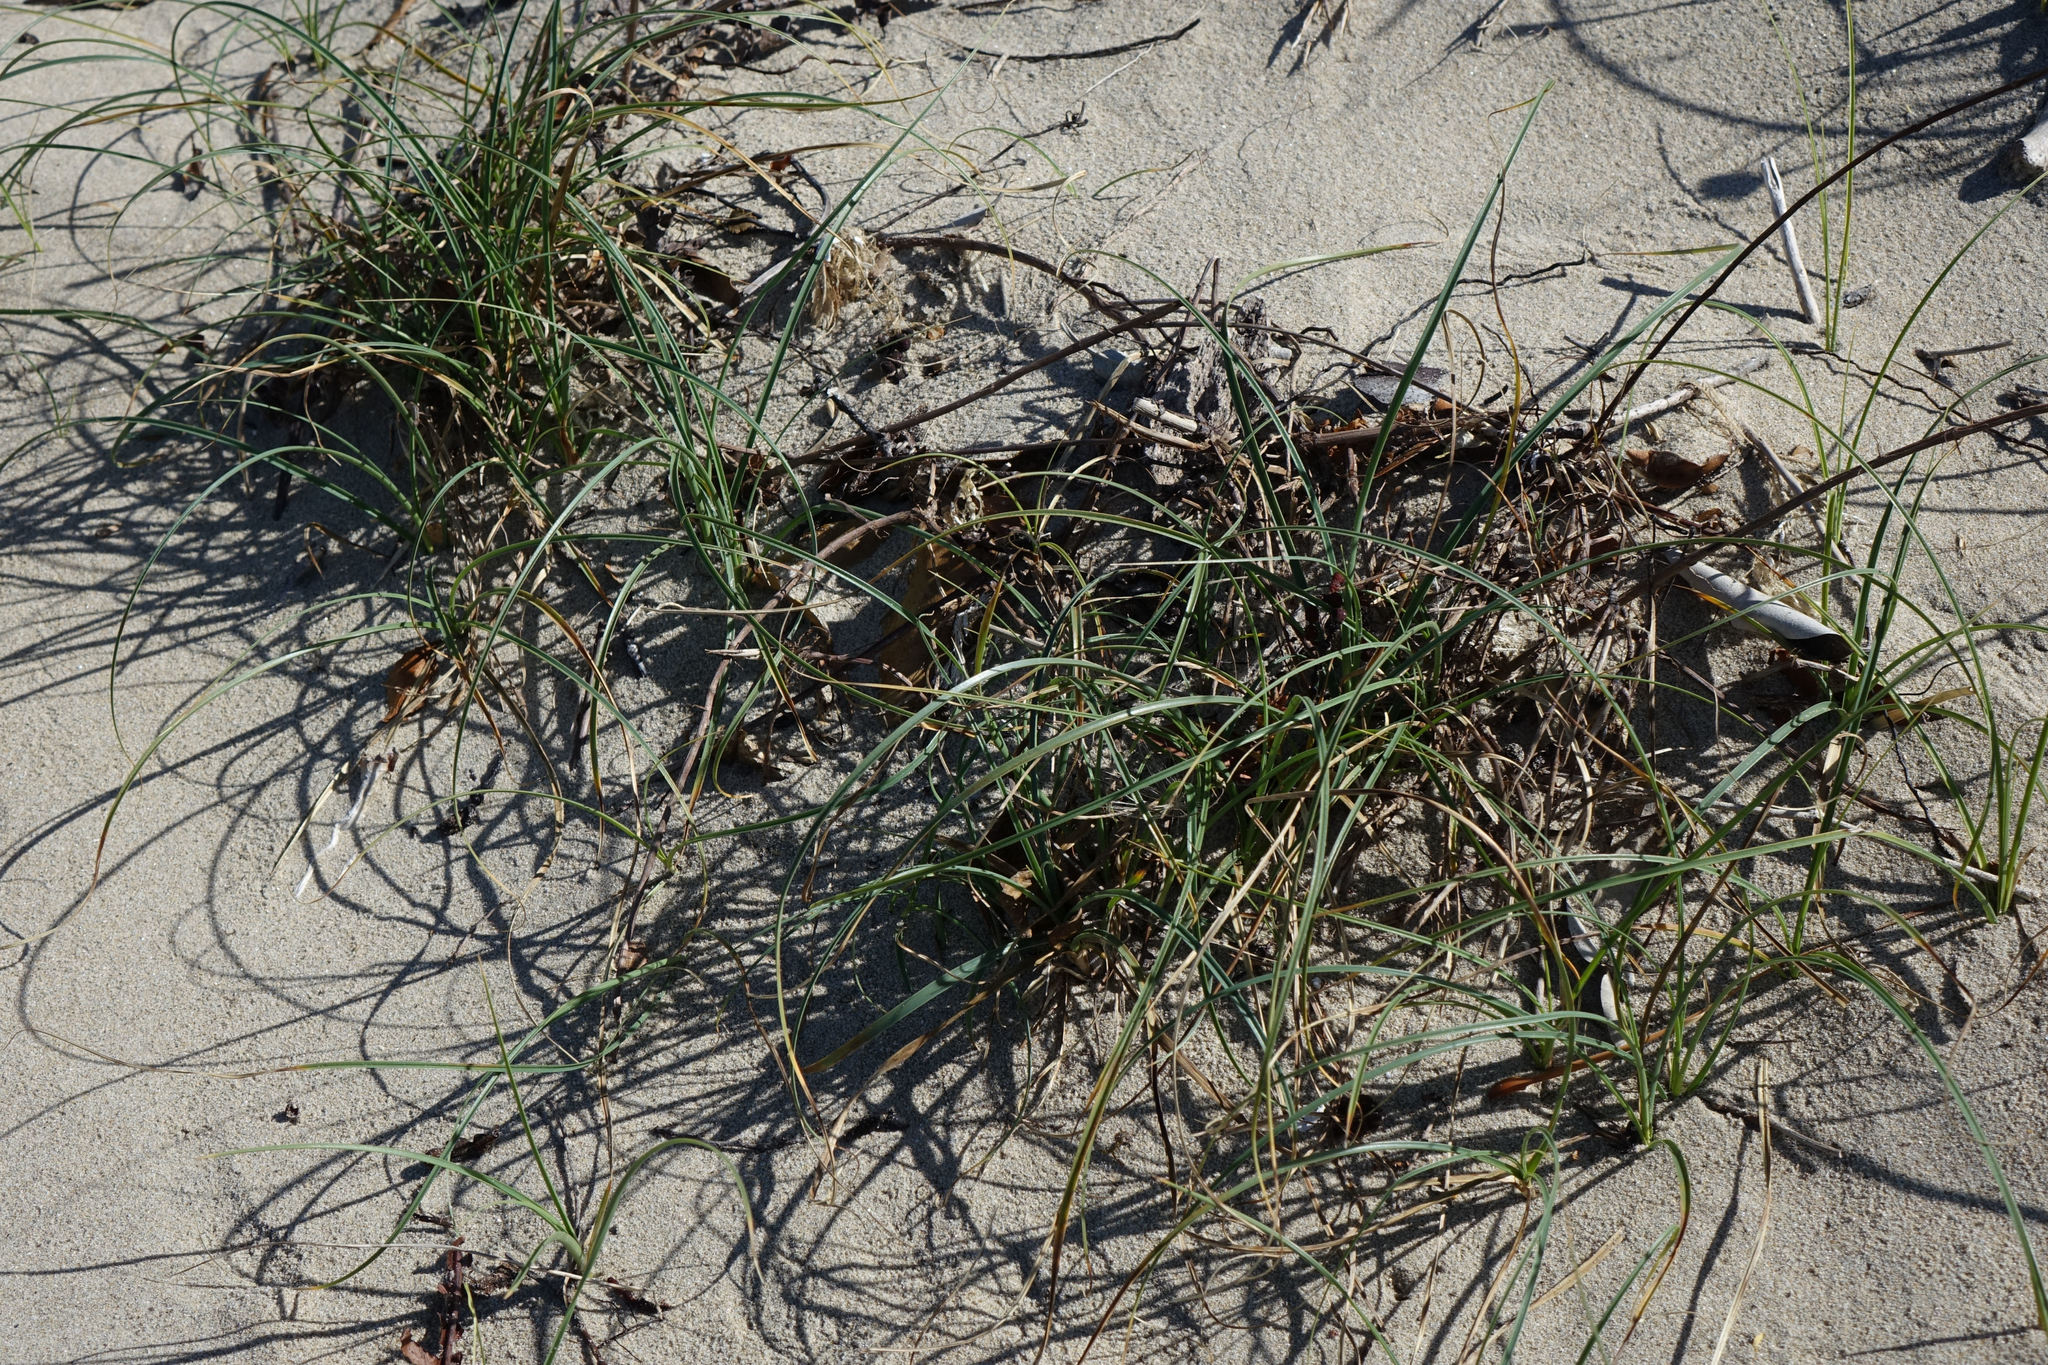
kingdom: Plantae
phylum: Tracheophyta
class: Liliopsida
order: Poales
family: Cyperaceae
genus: Carex
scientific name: Carex pumila
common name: Dwarf sedge
